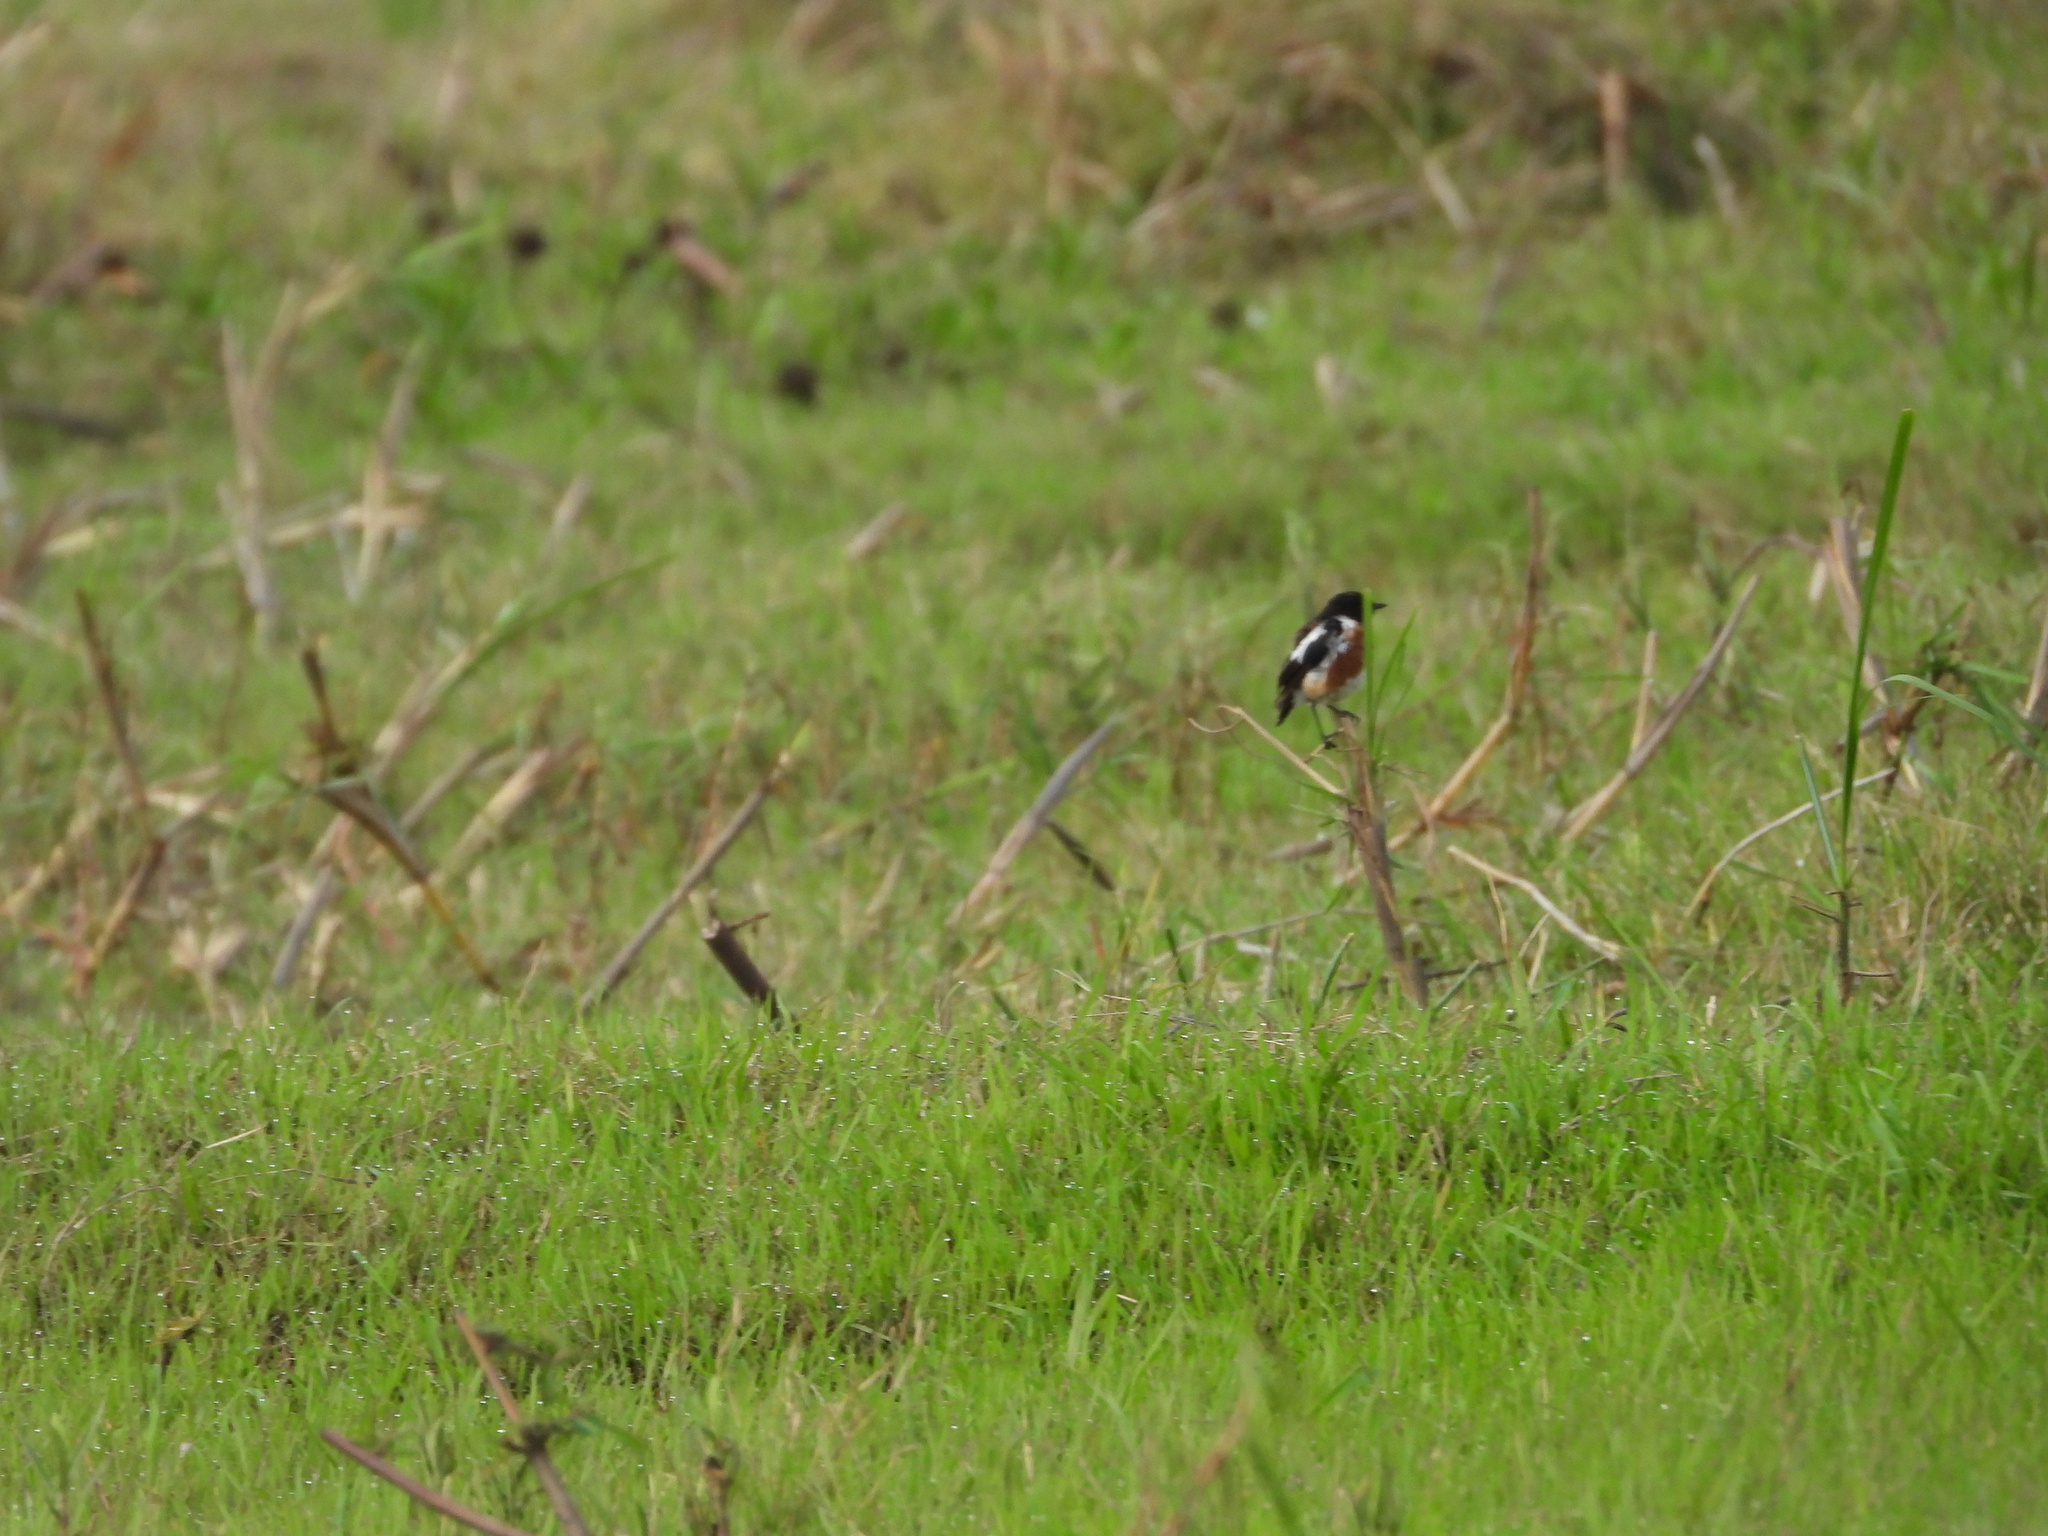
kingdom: Animalia
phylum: Chordata
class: Aves
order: Passeriformes
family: Muscicapidae
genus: Saxicola
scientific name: Saxicola torquatus
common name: African stonechat
